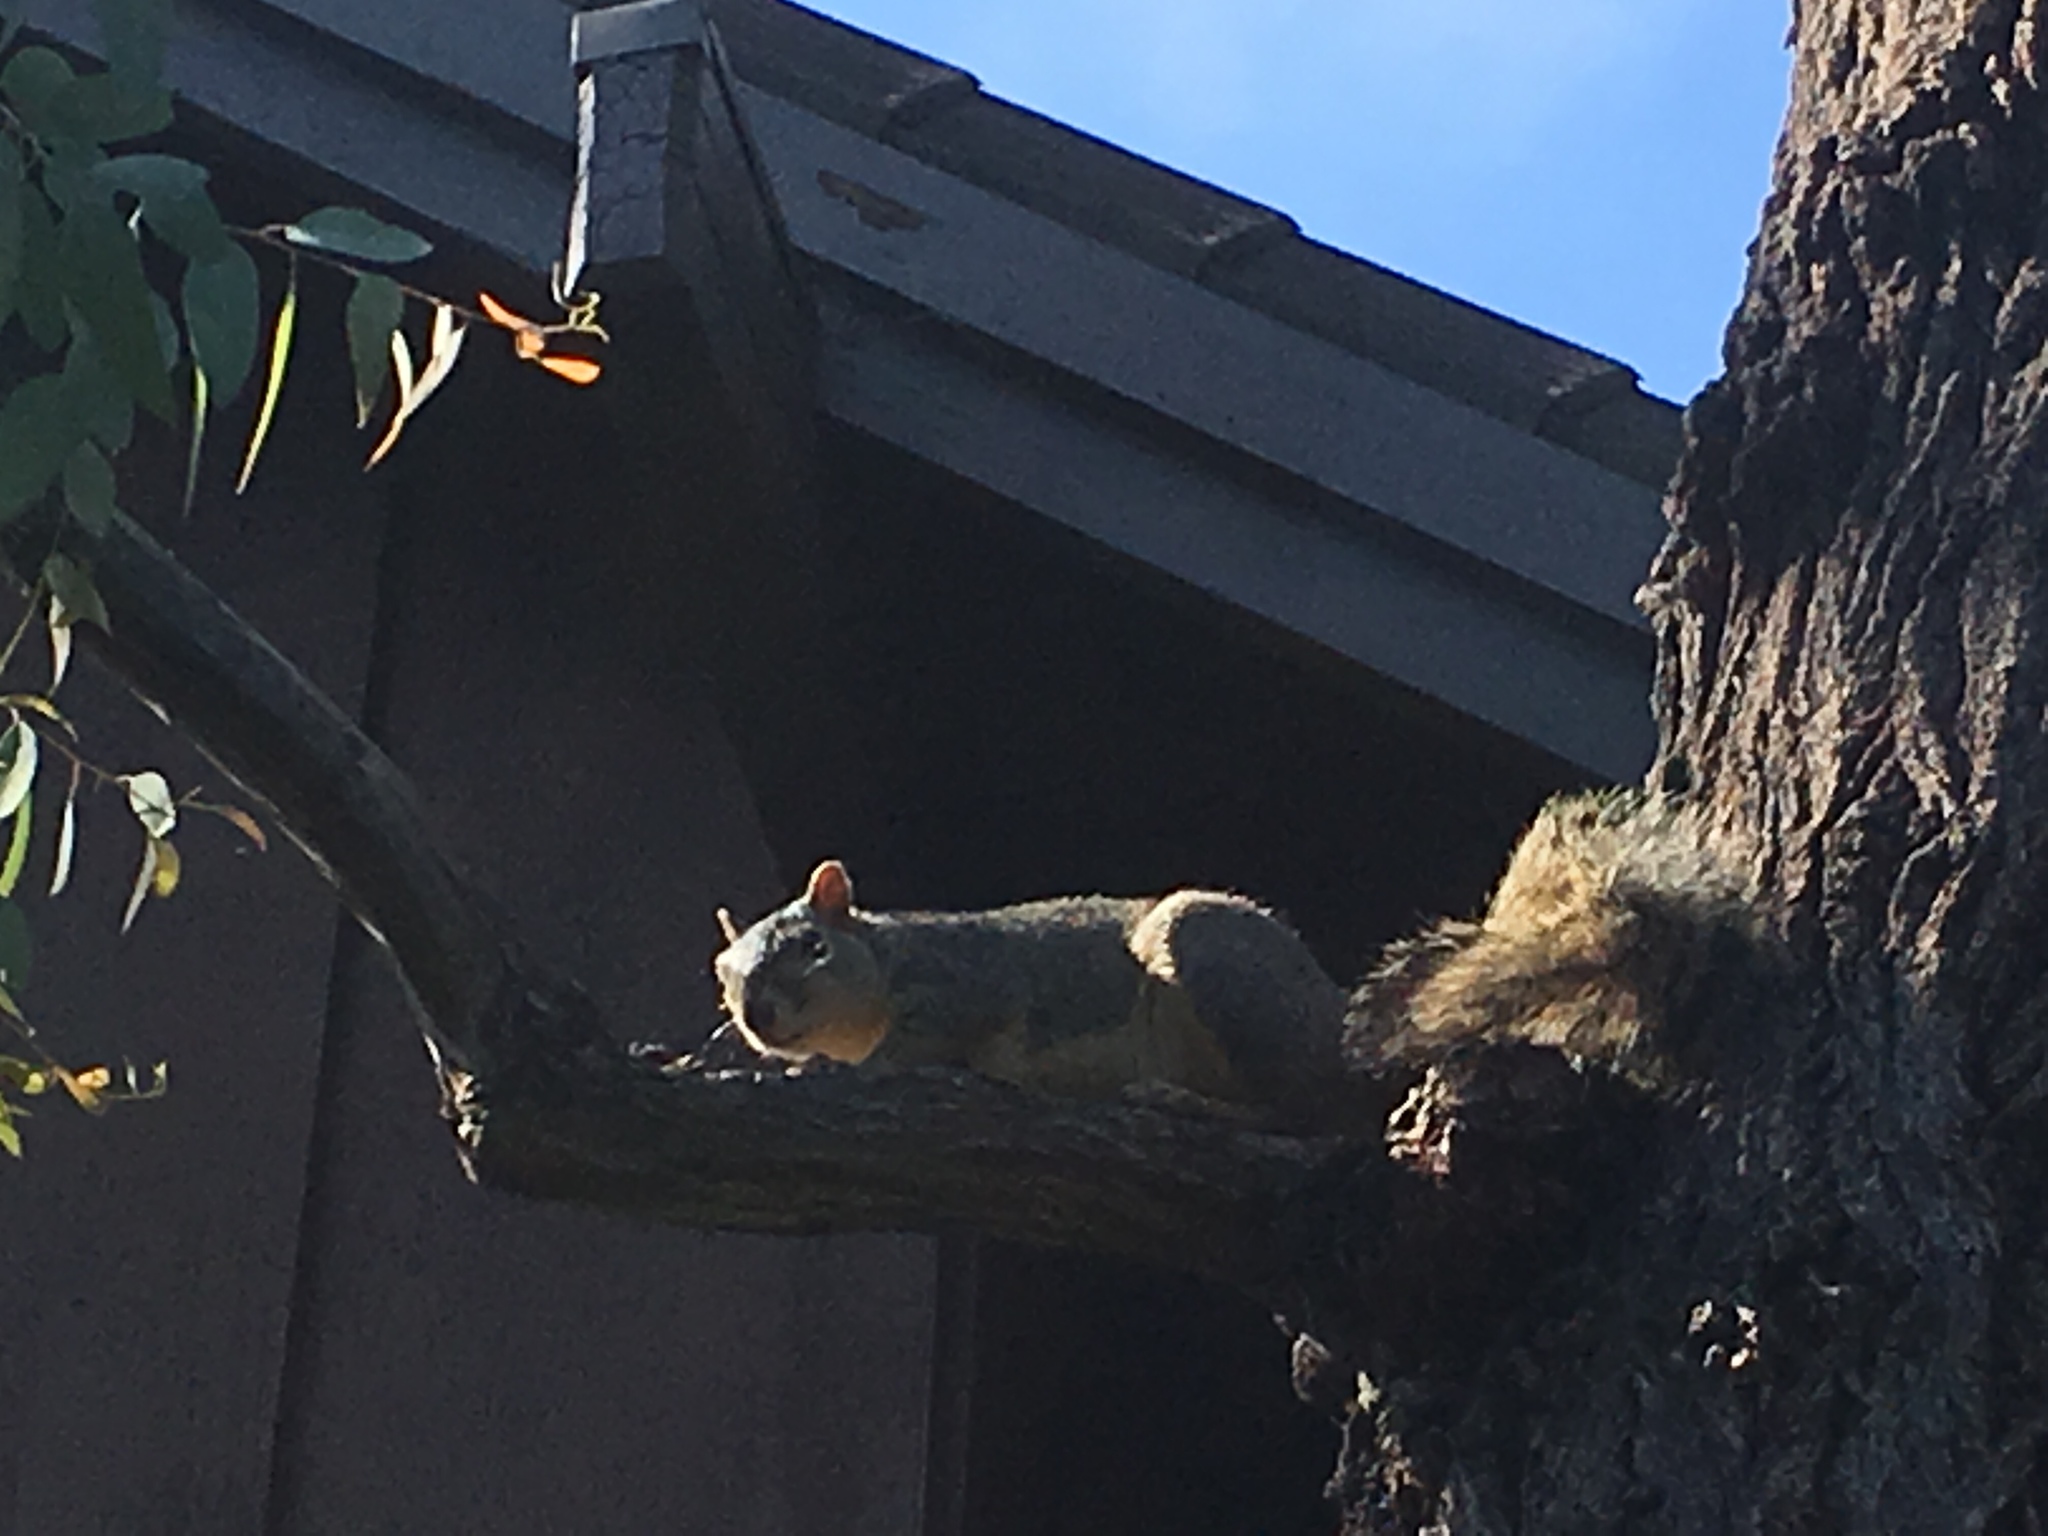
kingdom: Animalia
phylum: Chordata
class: Mammalia
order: Rodentia
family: Sciuridae
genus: Sciurus
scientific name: Sciurus niger
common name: Fox squirrel
